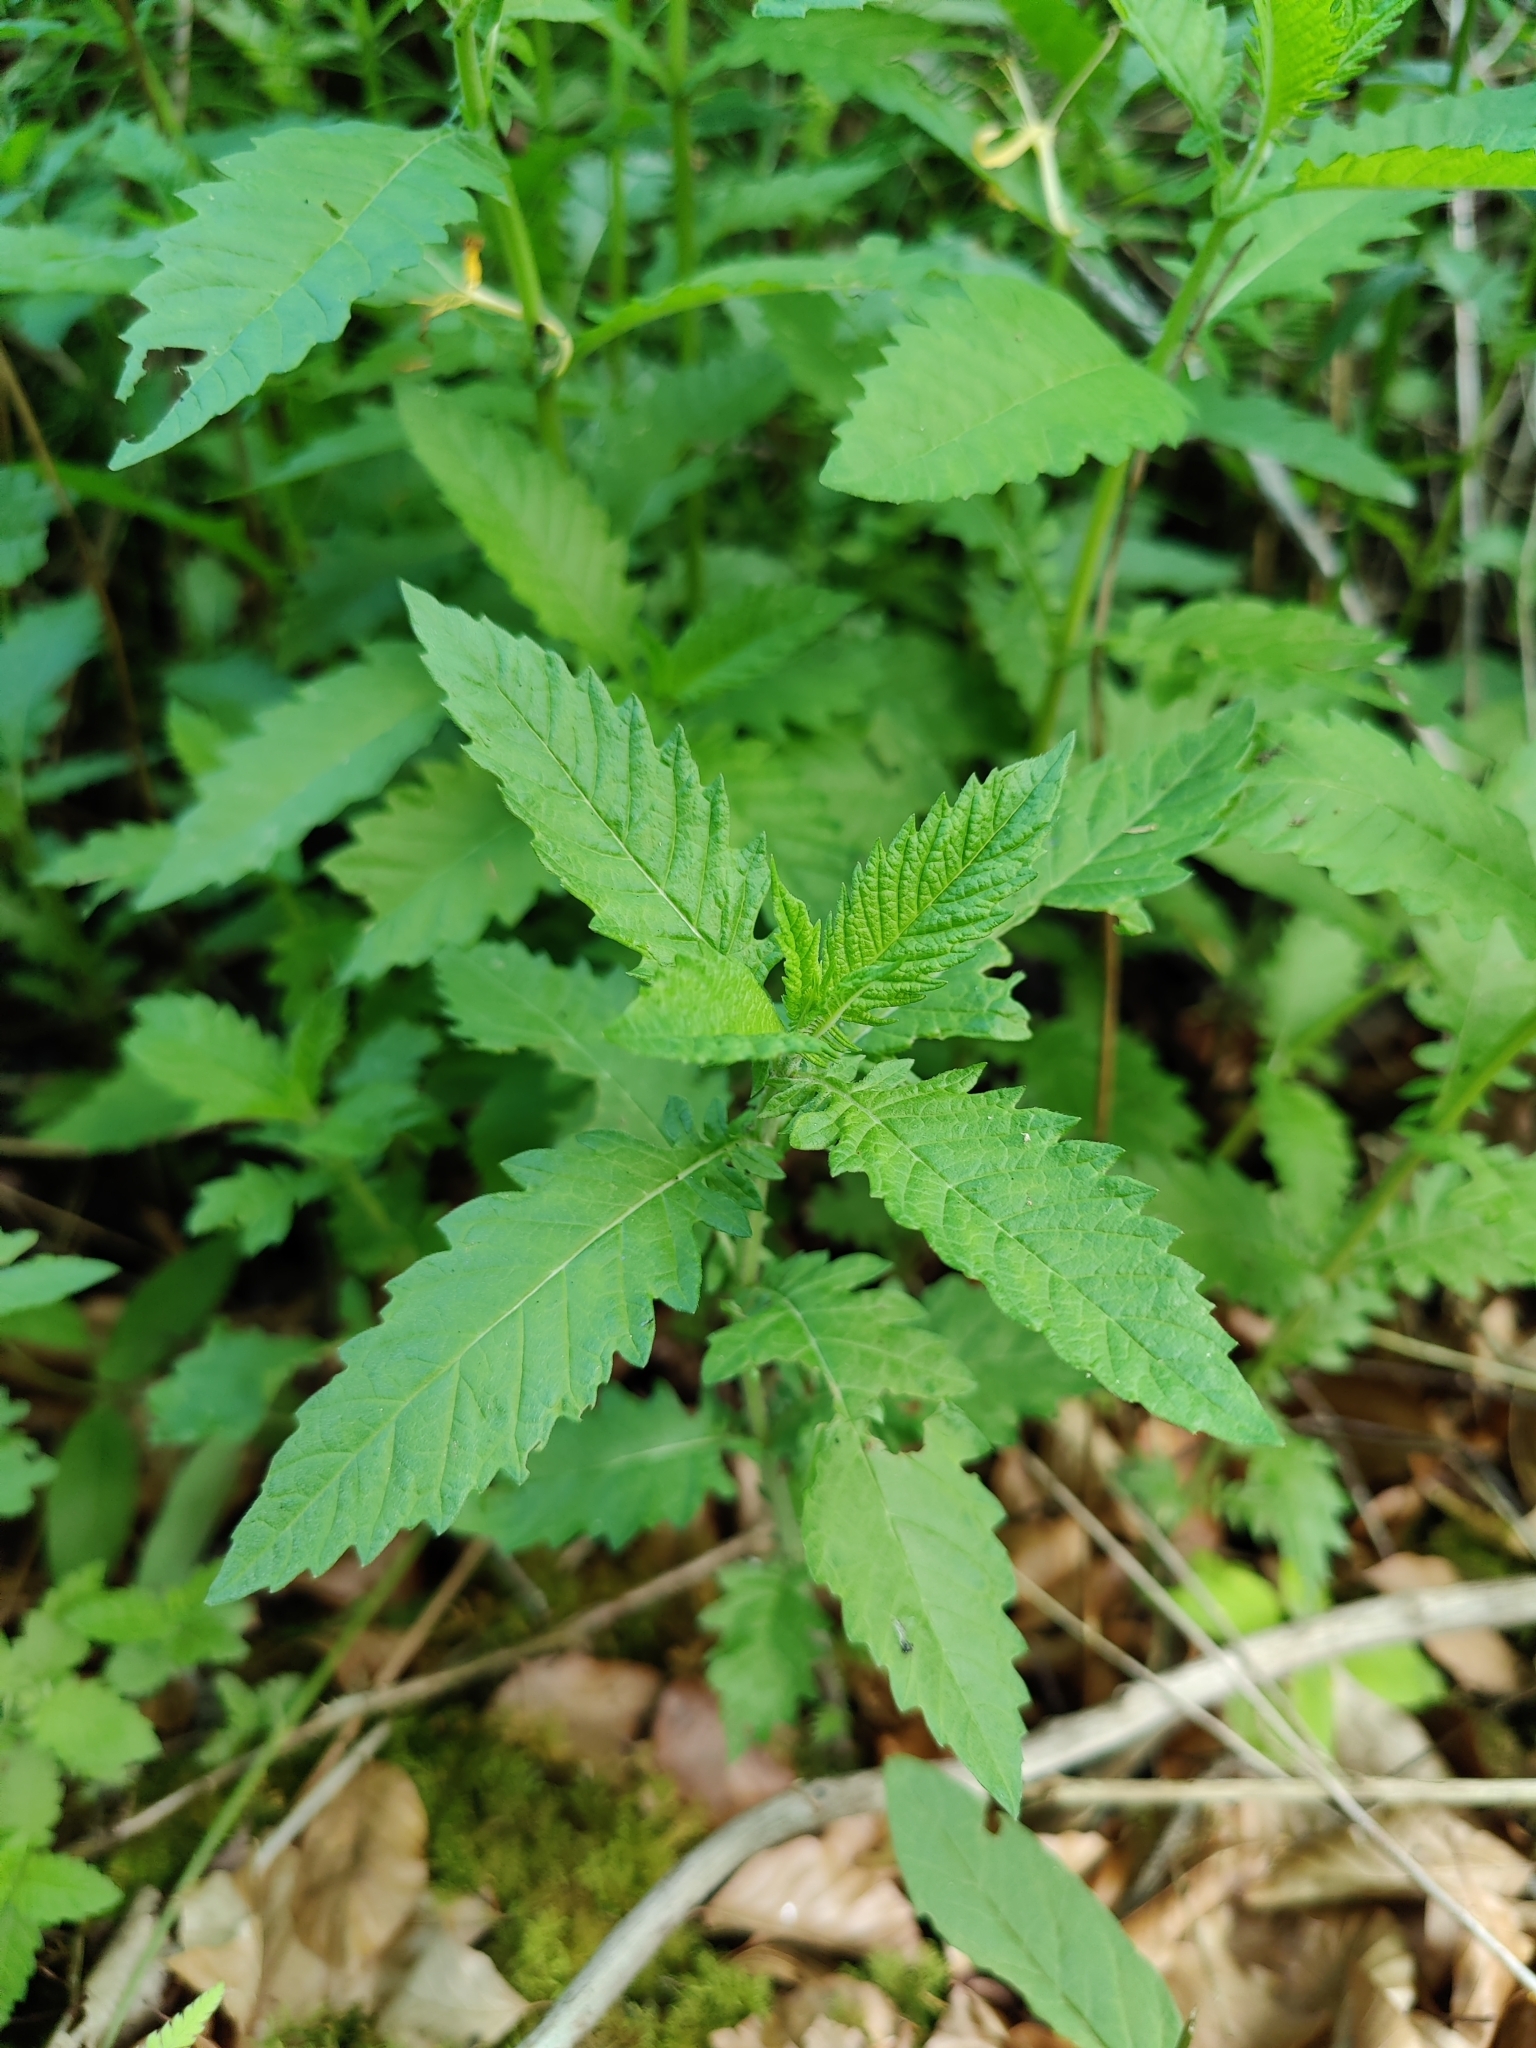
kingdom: Plantae
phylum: Tracheophyta
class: Magnoliopsida
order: Lamiales
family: Lamiaceae
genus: Lycopus
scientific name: Lycopus europaeus
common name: European bugleweed
